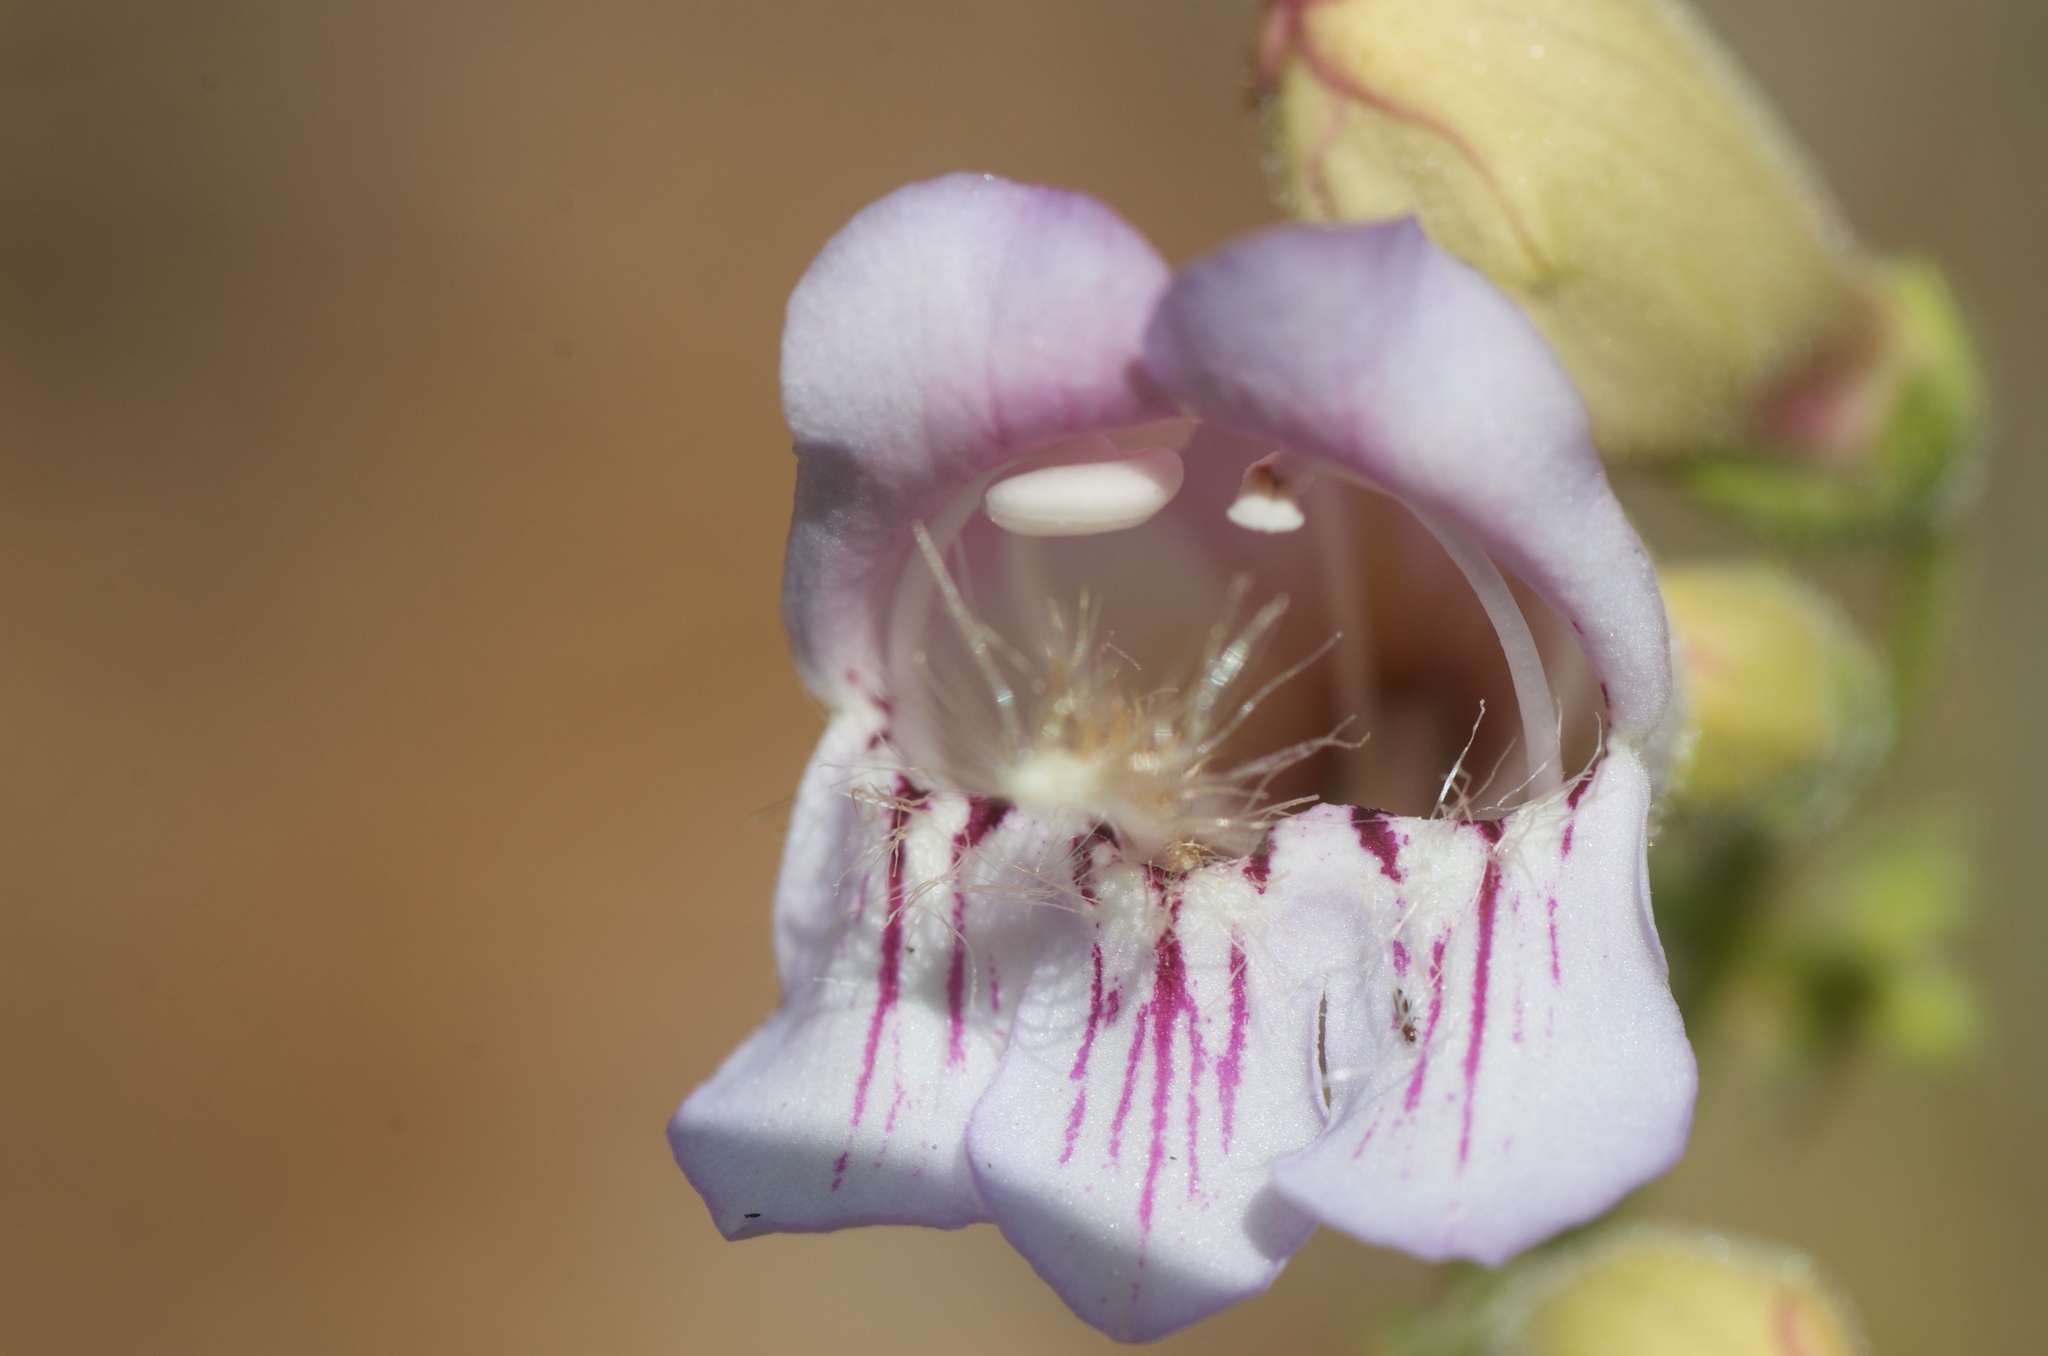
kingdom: Plantae
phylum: Tracheophyta
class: Magnoliopsida
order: Lamiales
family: Plantaginaceae
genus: Penstemon
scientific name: Penstemon grinnellii
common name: Grinnell's beardtongue
